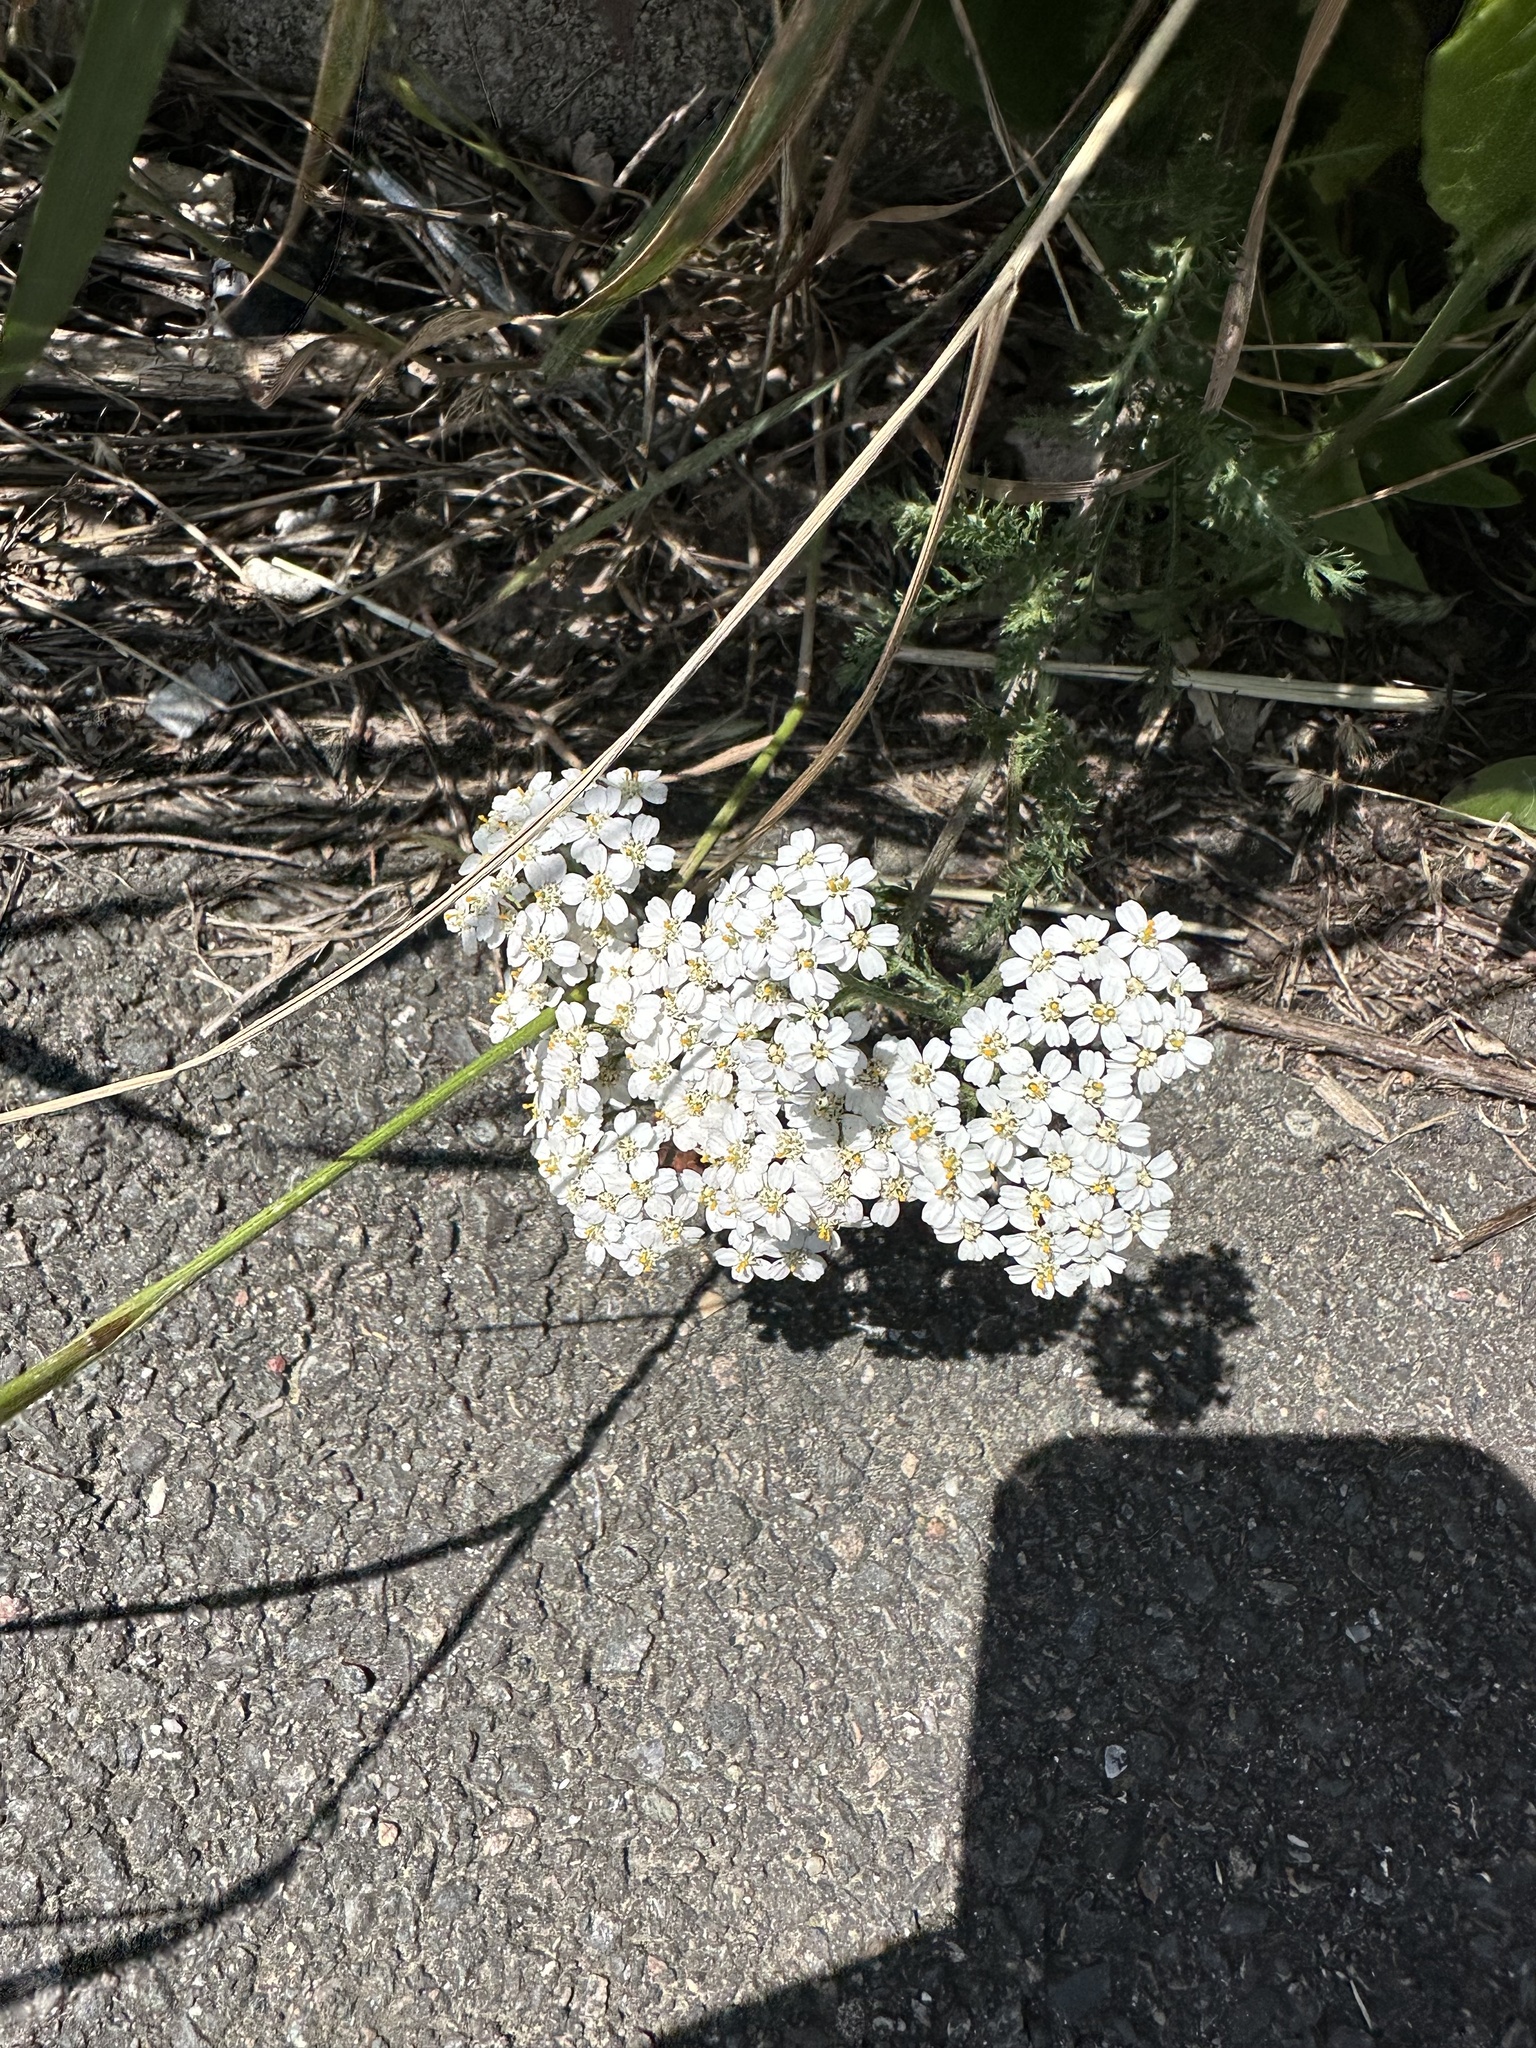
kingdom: Plantae
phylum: Tracheophyta
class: Magnoliopsida
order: Asterales
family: Asteraceae
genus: Achillea
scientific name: Achillea millefolium
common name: Yarrow
